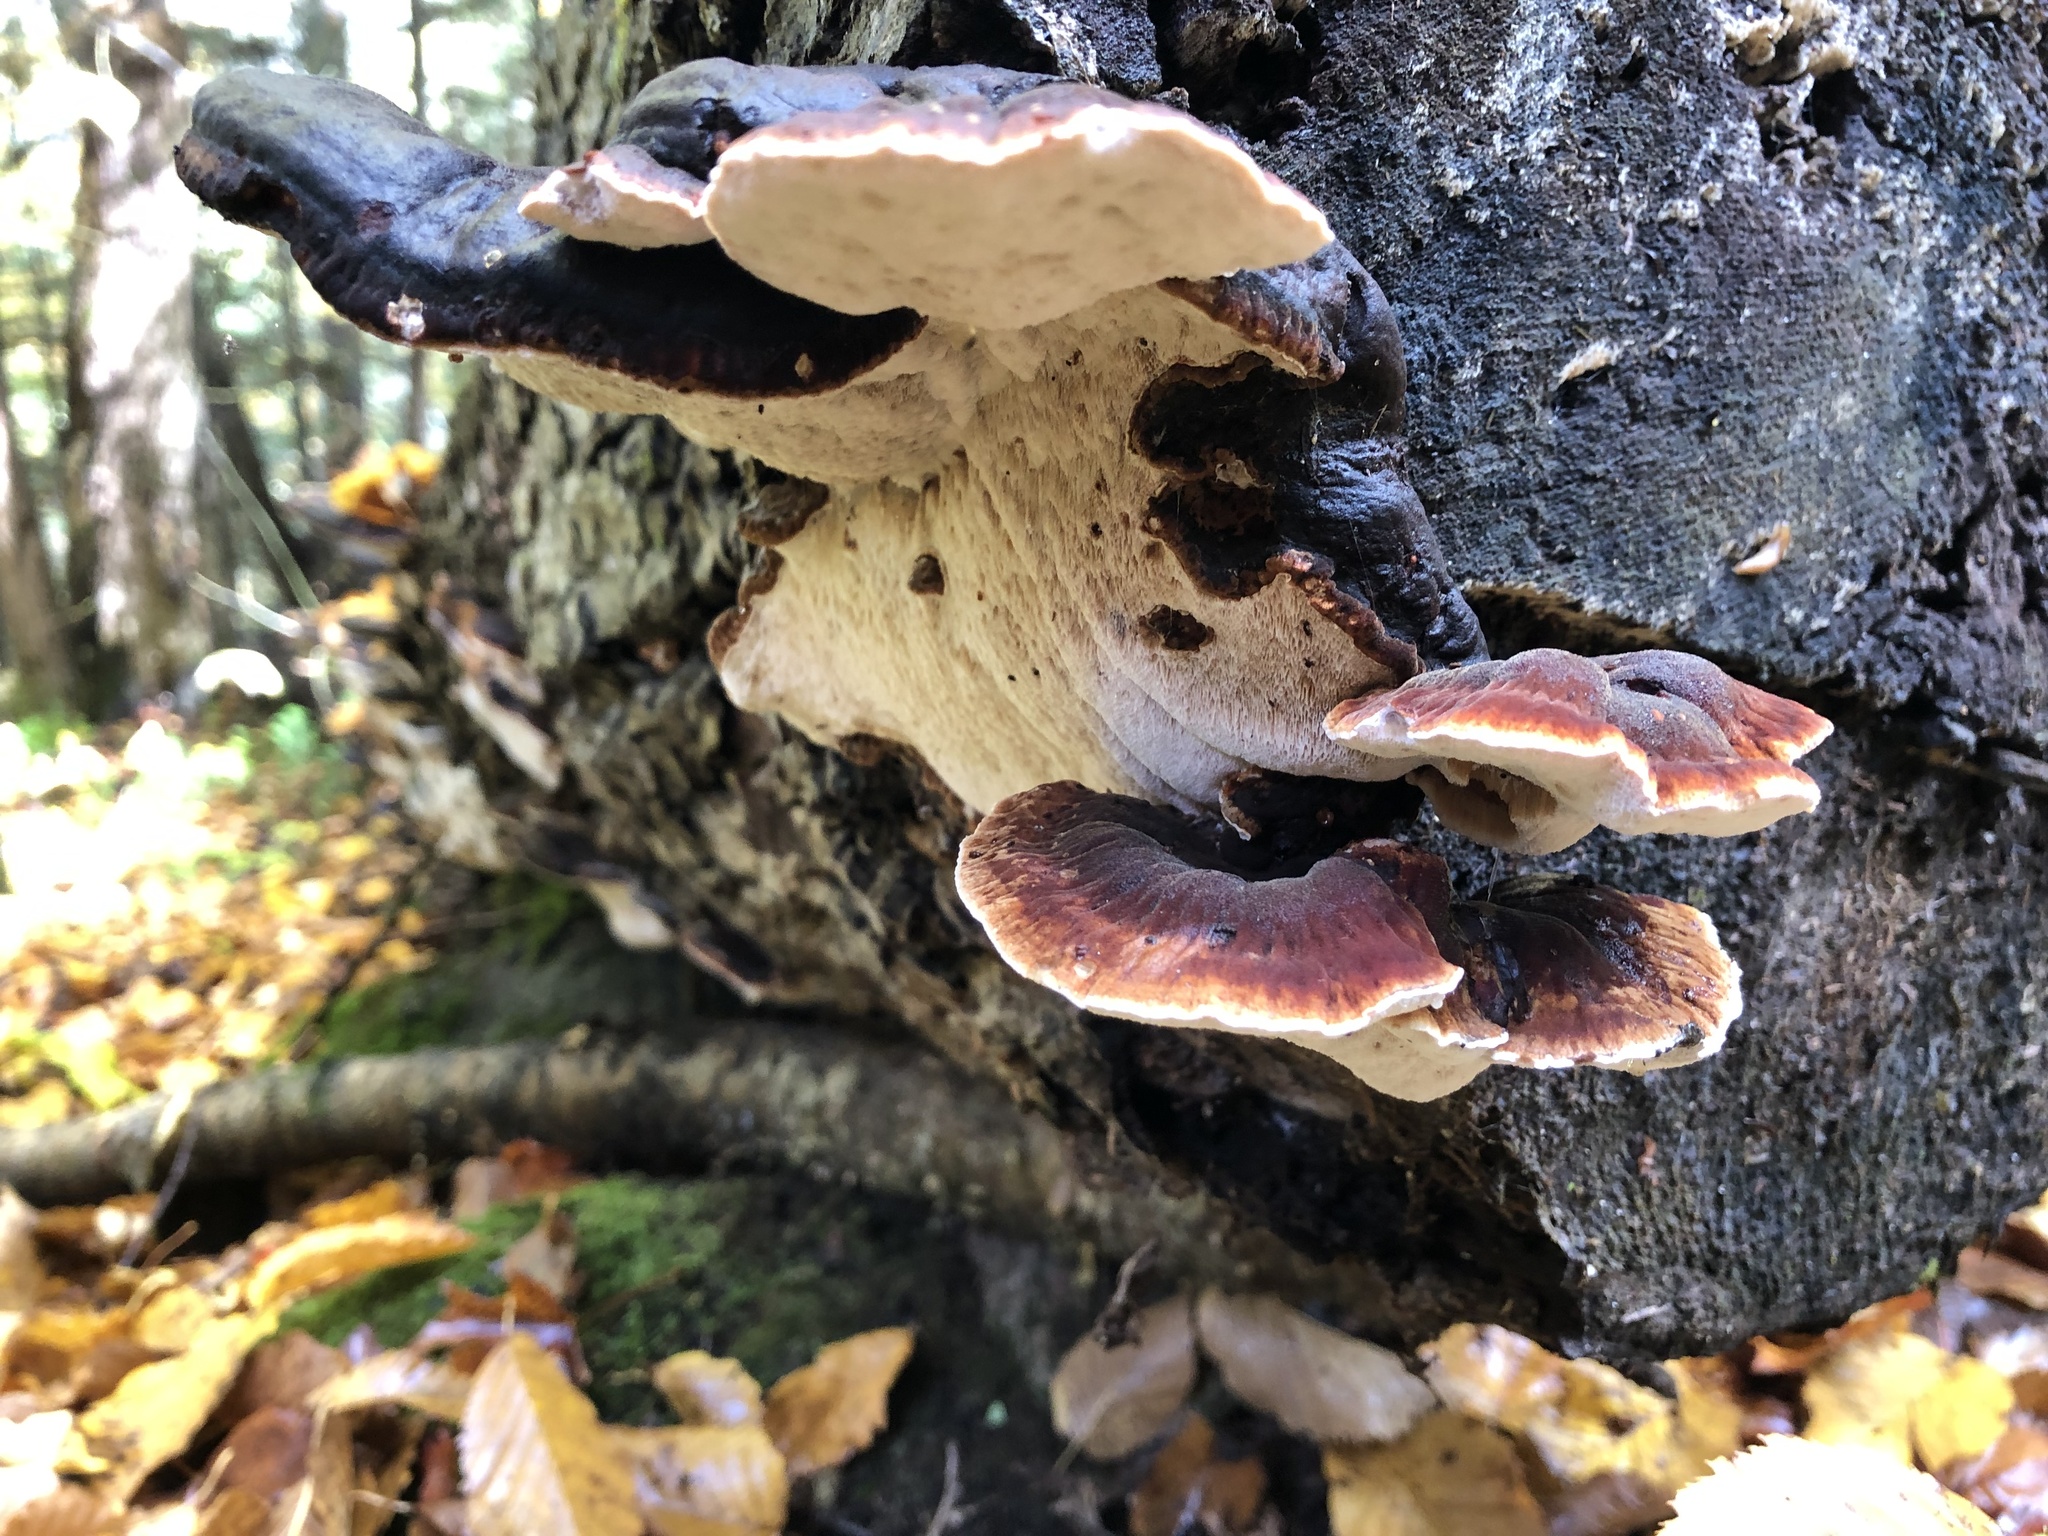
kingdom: Fungi
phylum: Basidiomycota
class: Agaricomycetes
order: Polyporales
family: Ischnodermataceae
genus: Ischnoderma
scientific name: Ischnoderma resinosum
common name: Resinous polypore
